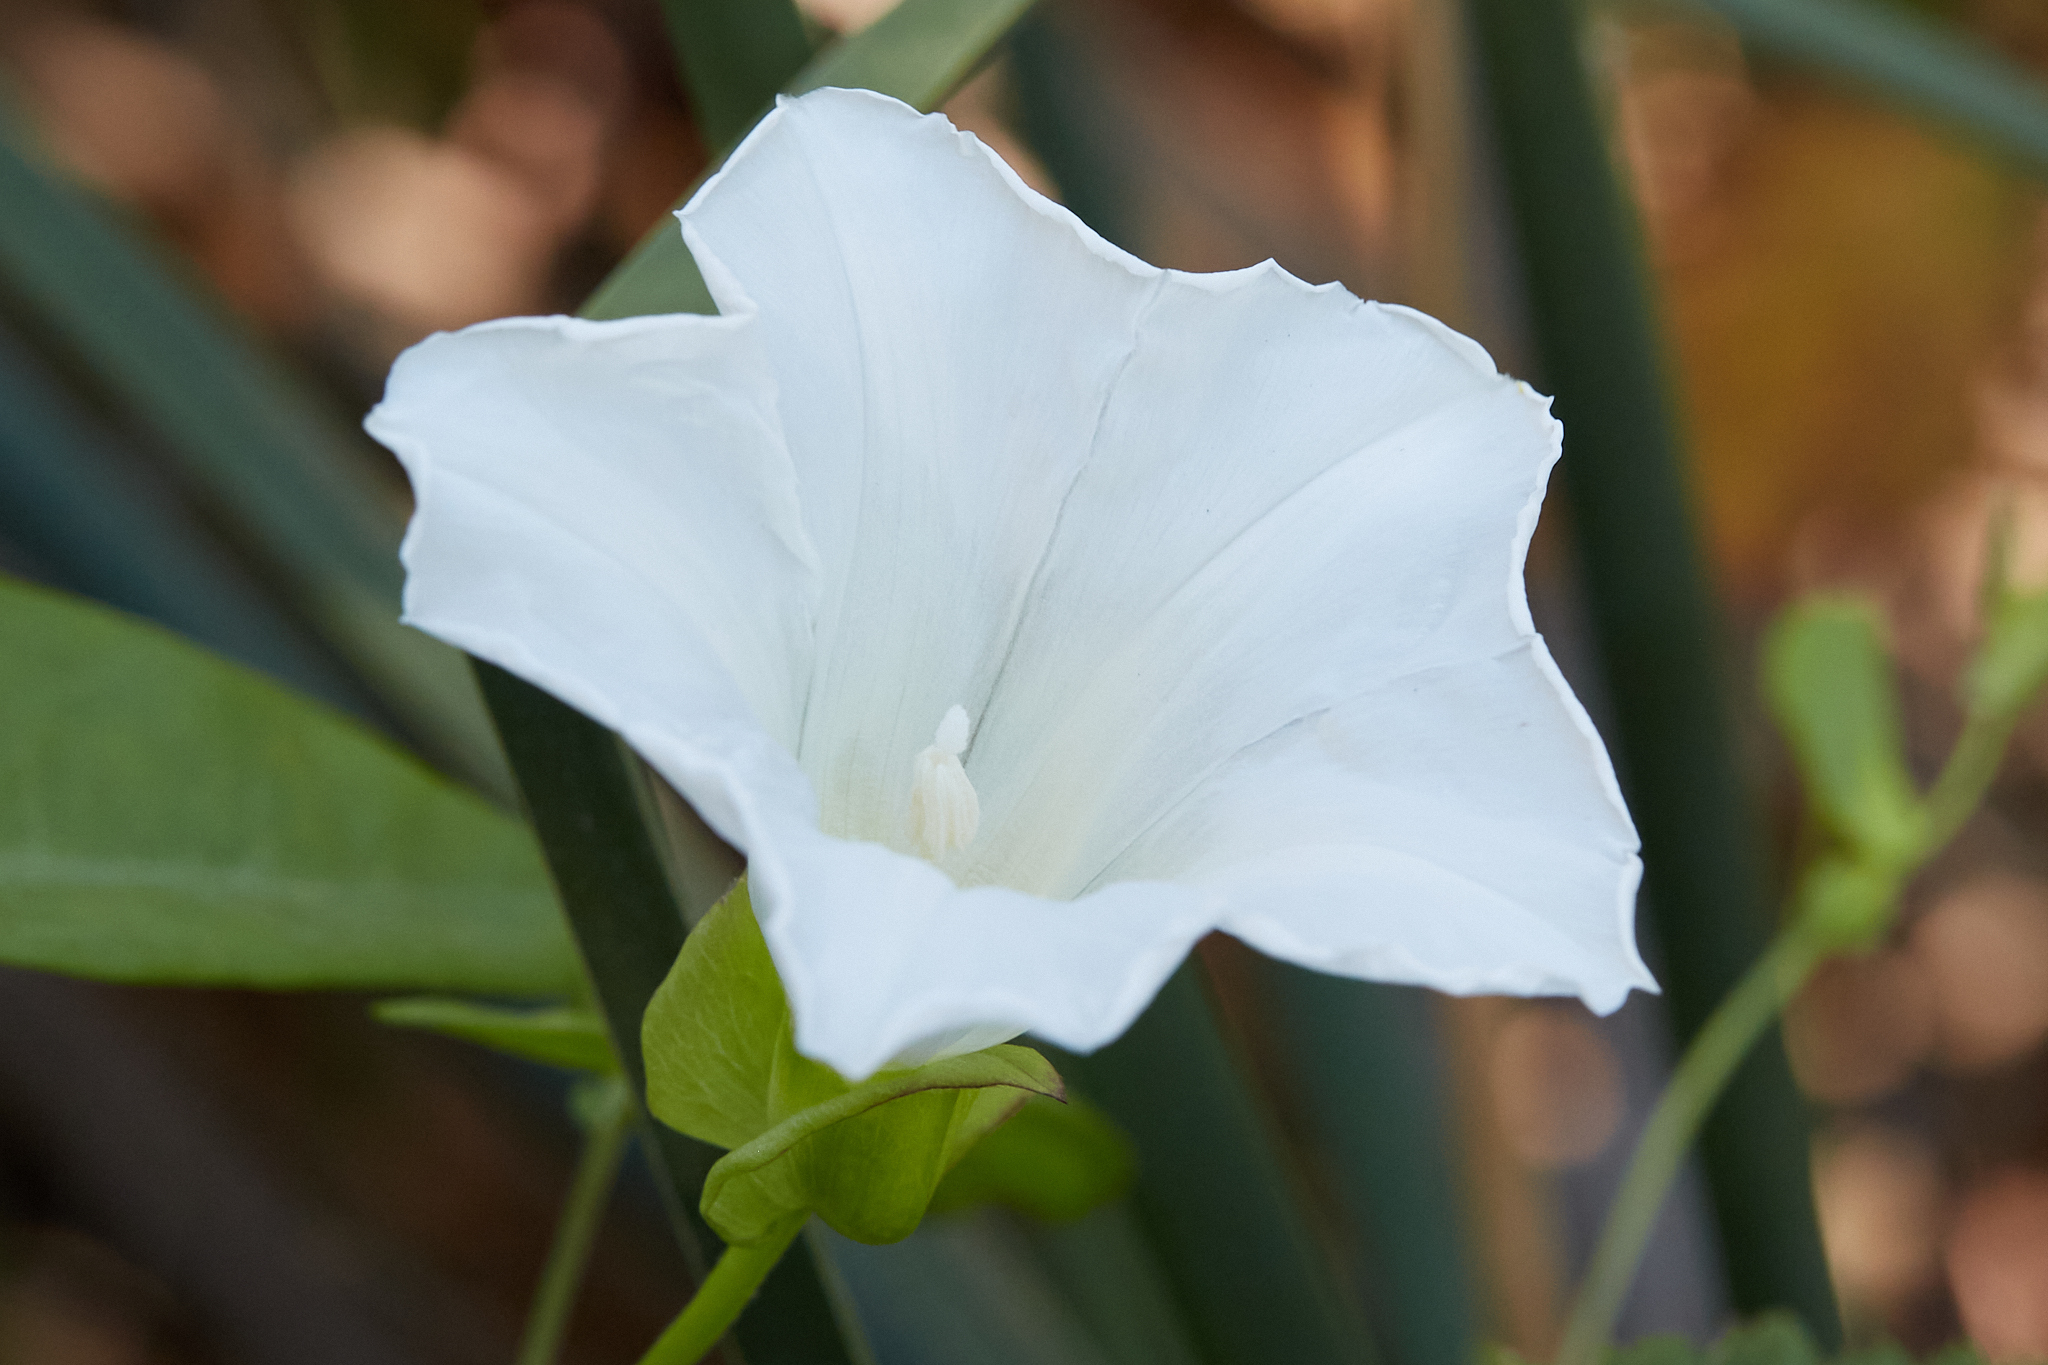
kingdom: Plantae
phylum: Tracheophyta
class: Magnoliopsida
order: Solanales
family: Convolvulaceae
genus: Calystegia
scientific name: Calystegia sepium
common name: Hedge bindweed
